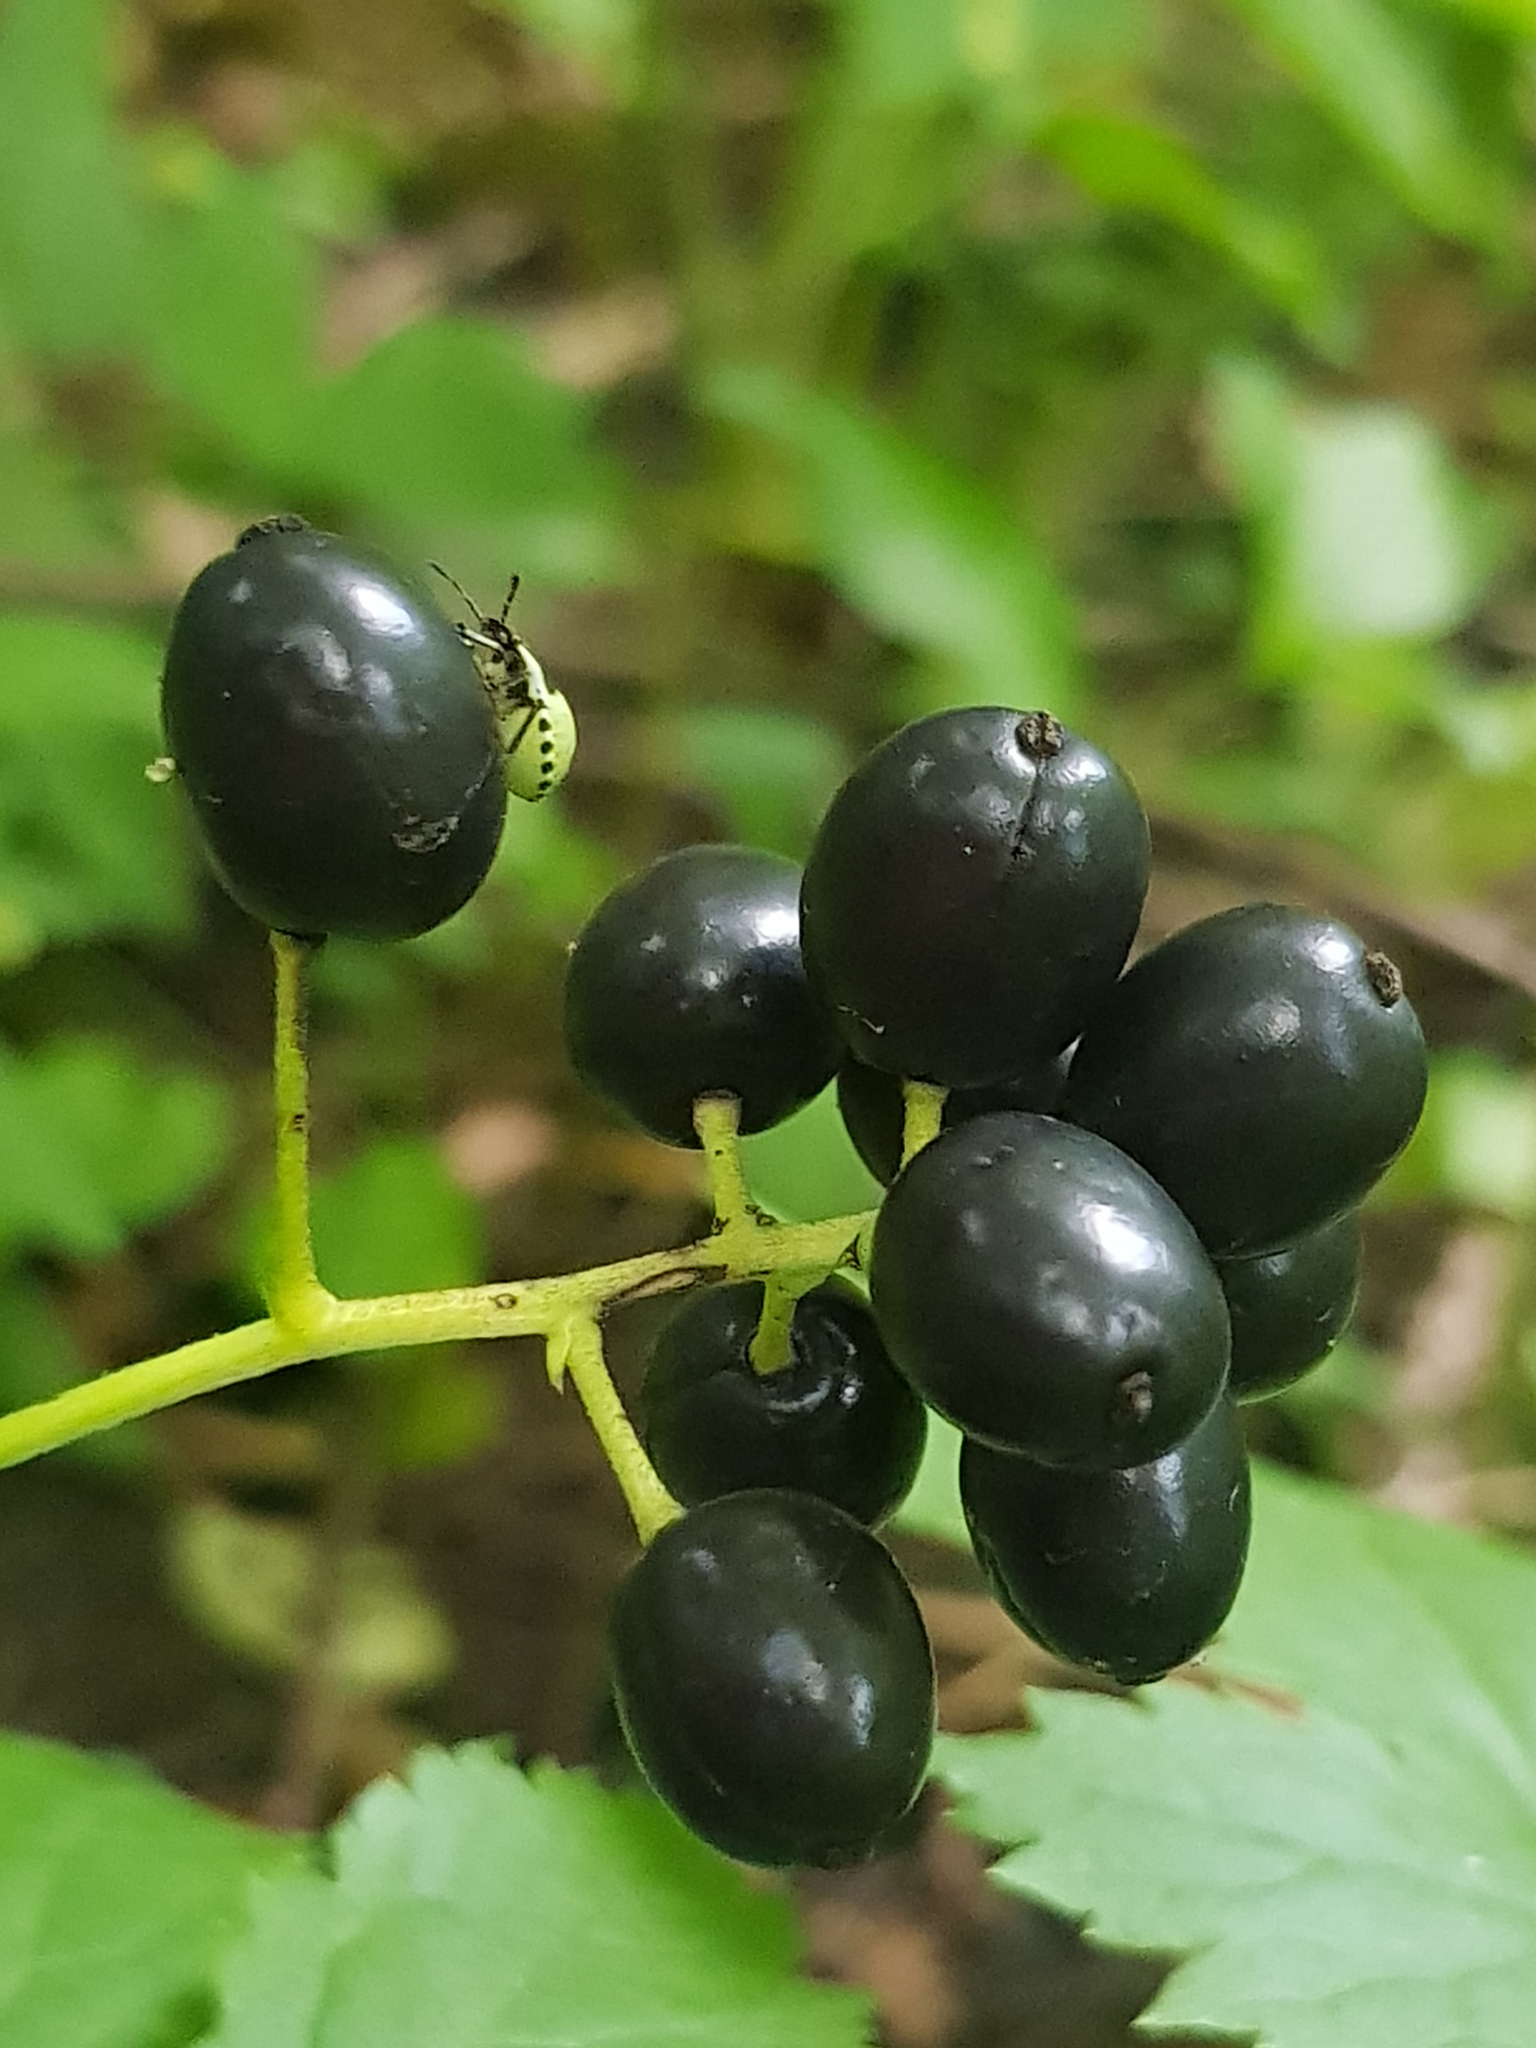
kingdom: Animalia
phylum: Arthropoda
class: Insecta
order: Hemiptera
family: Pentatomidae
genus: Palomena
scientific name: Palomena prasina
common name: Green shieldbug
